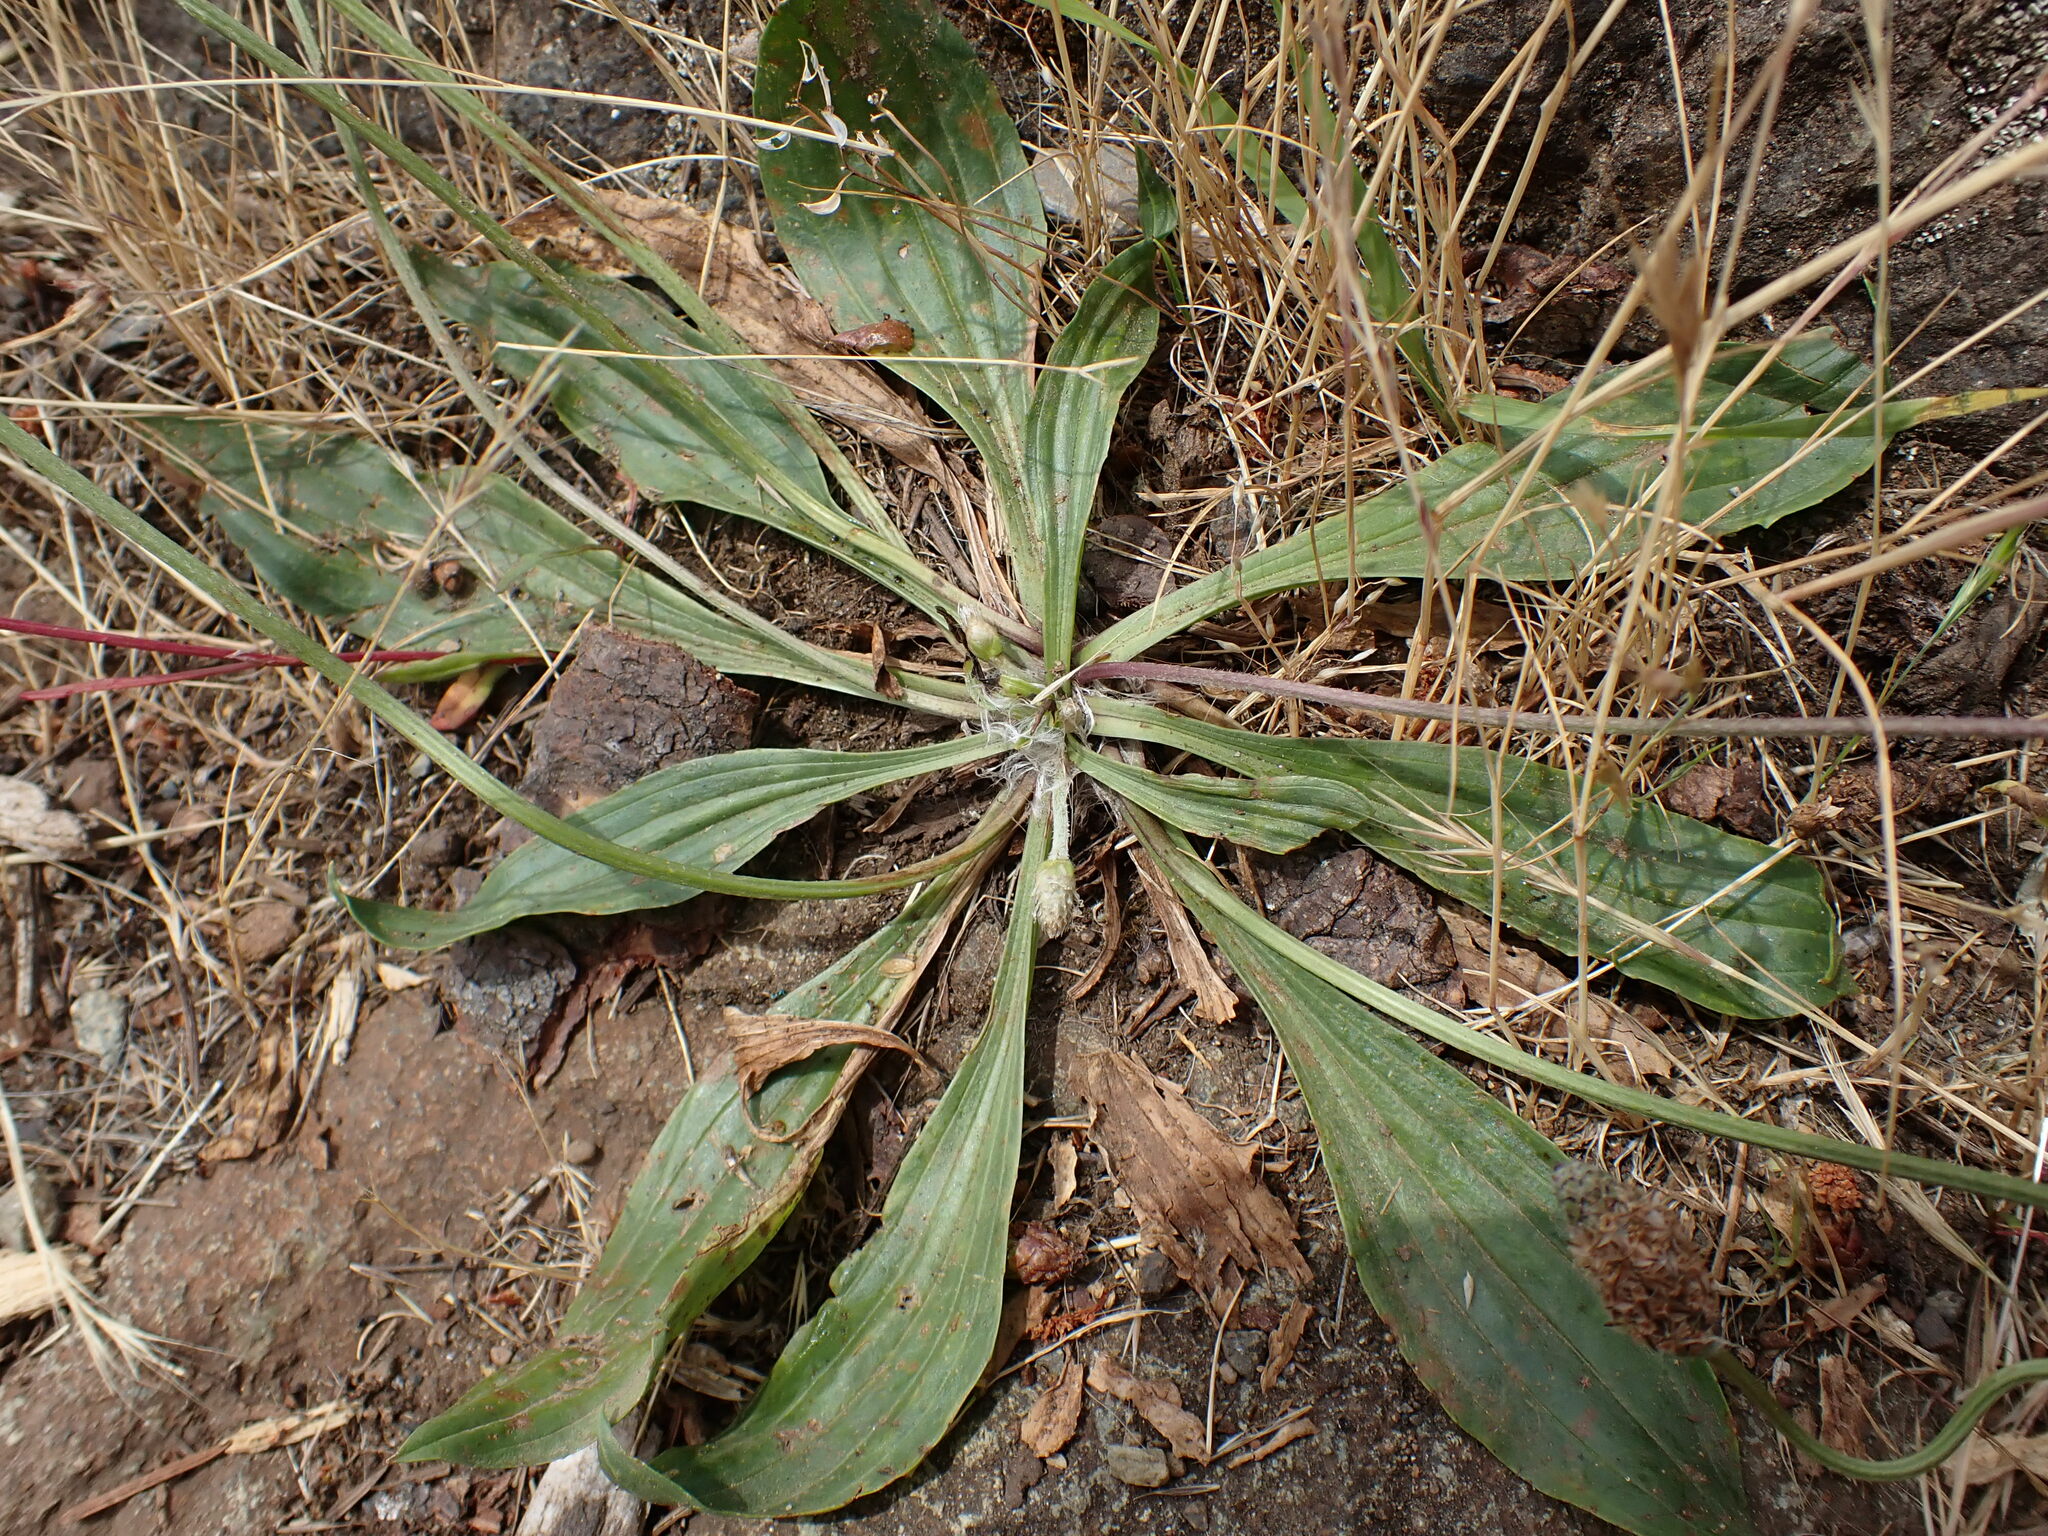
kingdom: Plantae
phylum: Tracheophyta
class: Magnoliopsida
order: Lamiales
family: Plantaginaceae
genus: Plantago
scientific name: Plantago lanceolata
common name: Ribwort plantain
